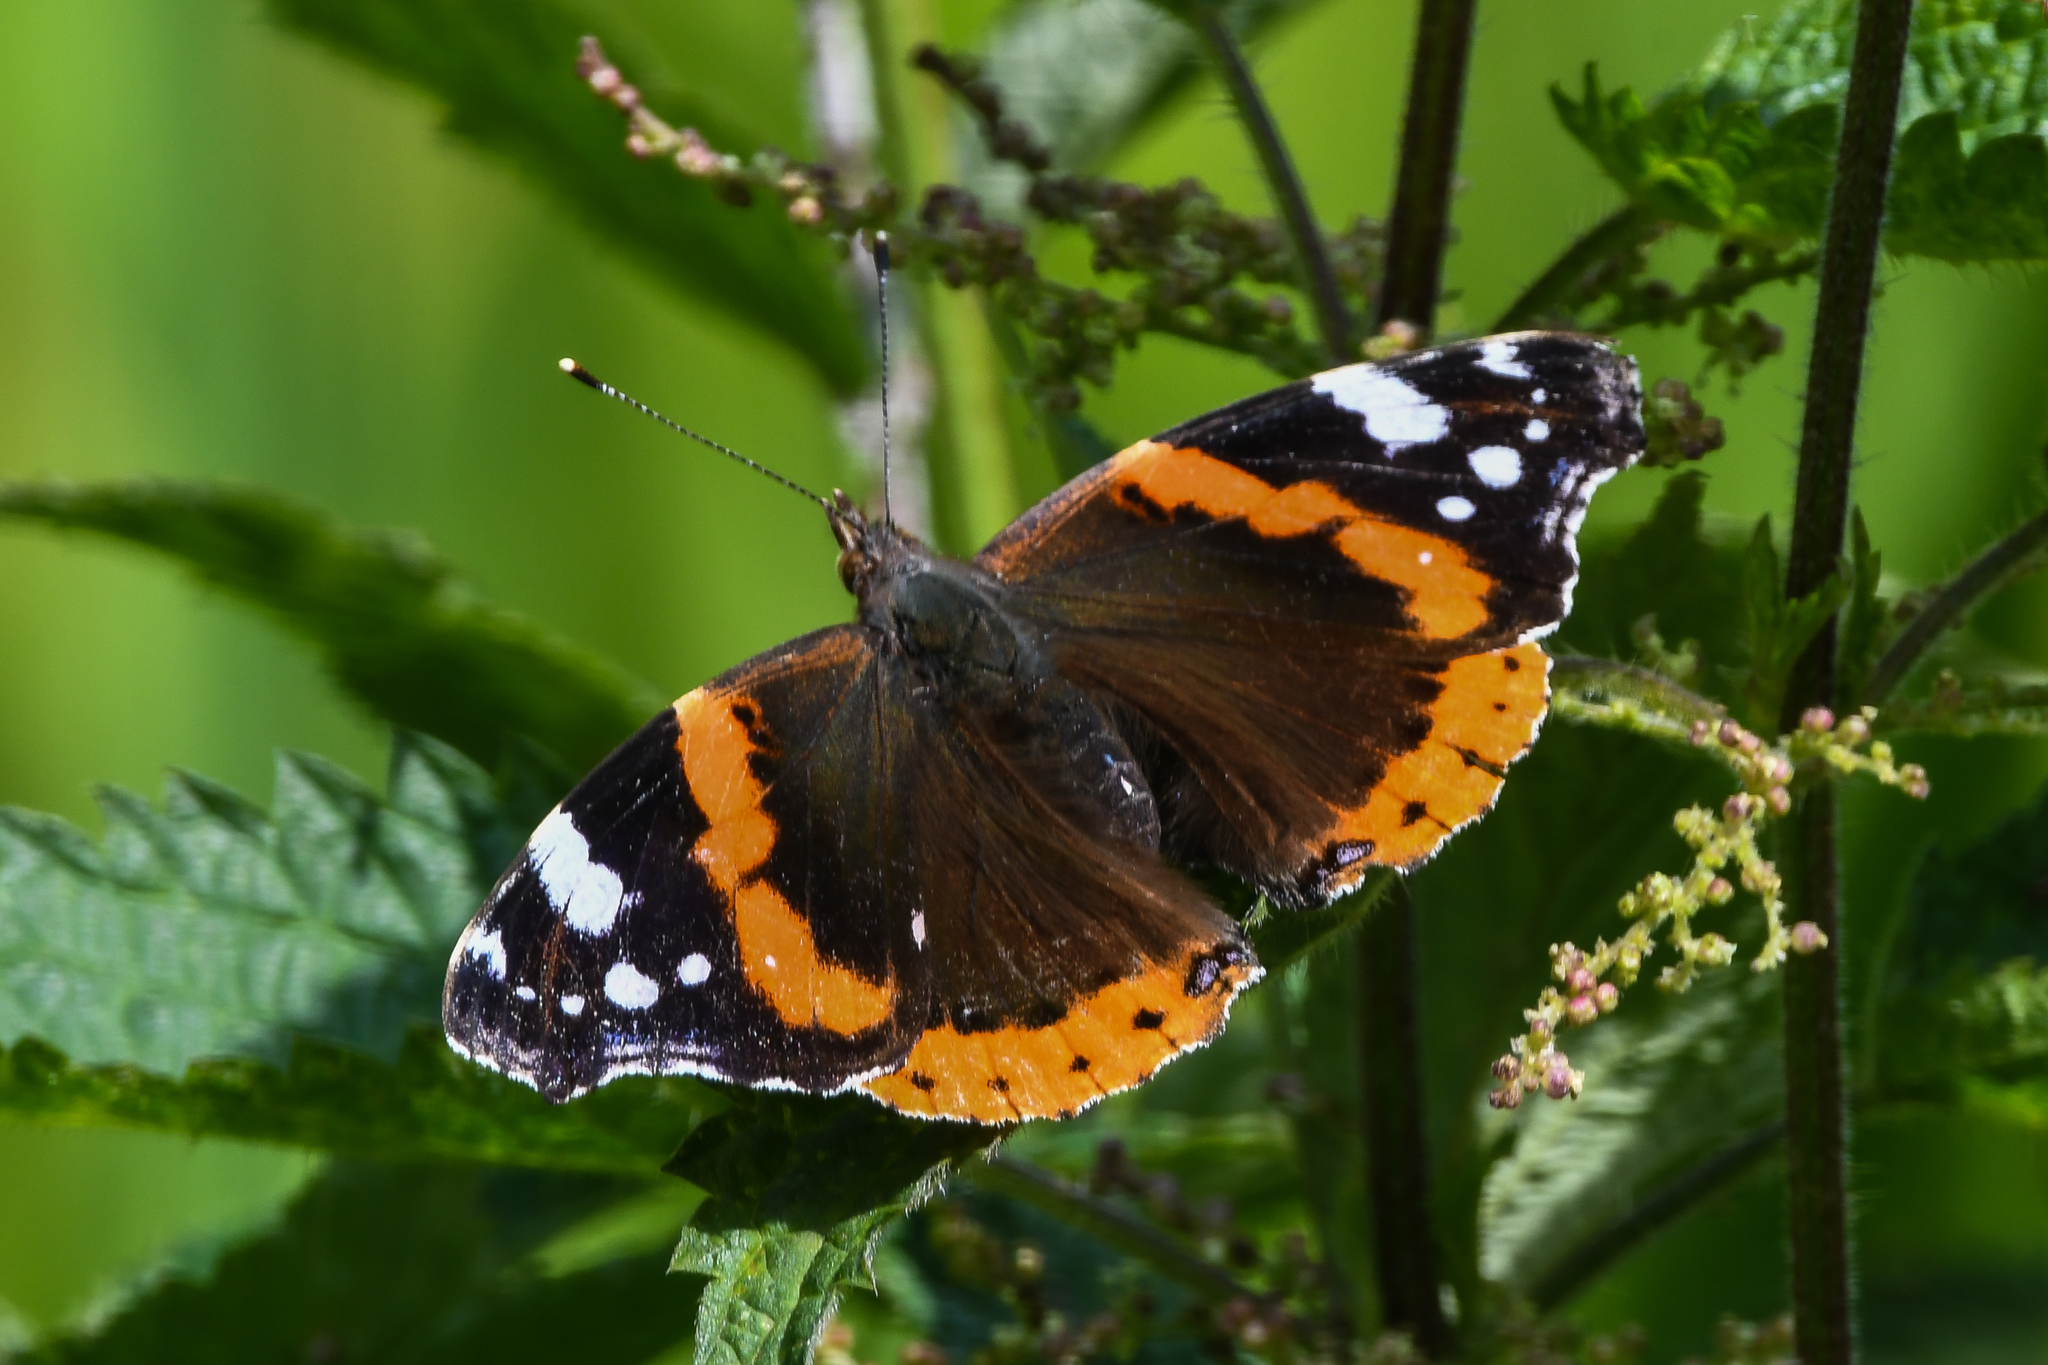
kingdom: Animalia
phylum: Arthropoda
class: Insecta
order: Lepidoptera
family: Nymphalidae
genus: Vanessa
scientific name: Vanessa atalanta
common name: Red admiral
